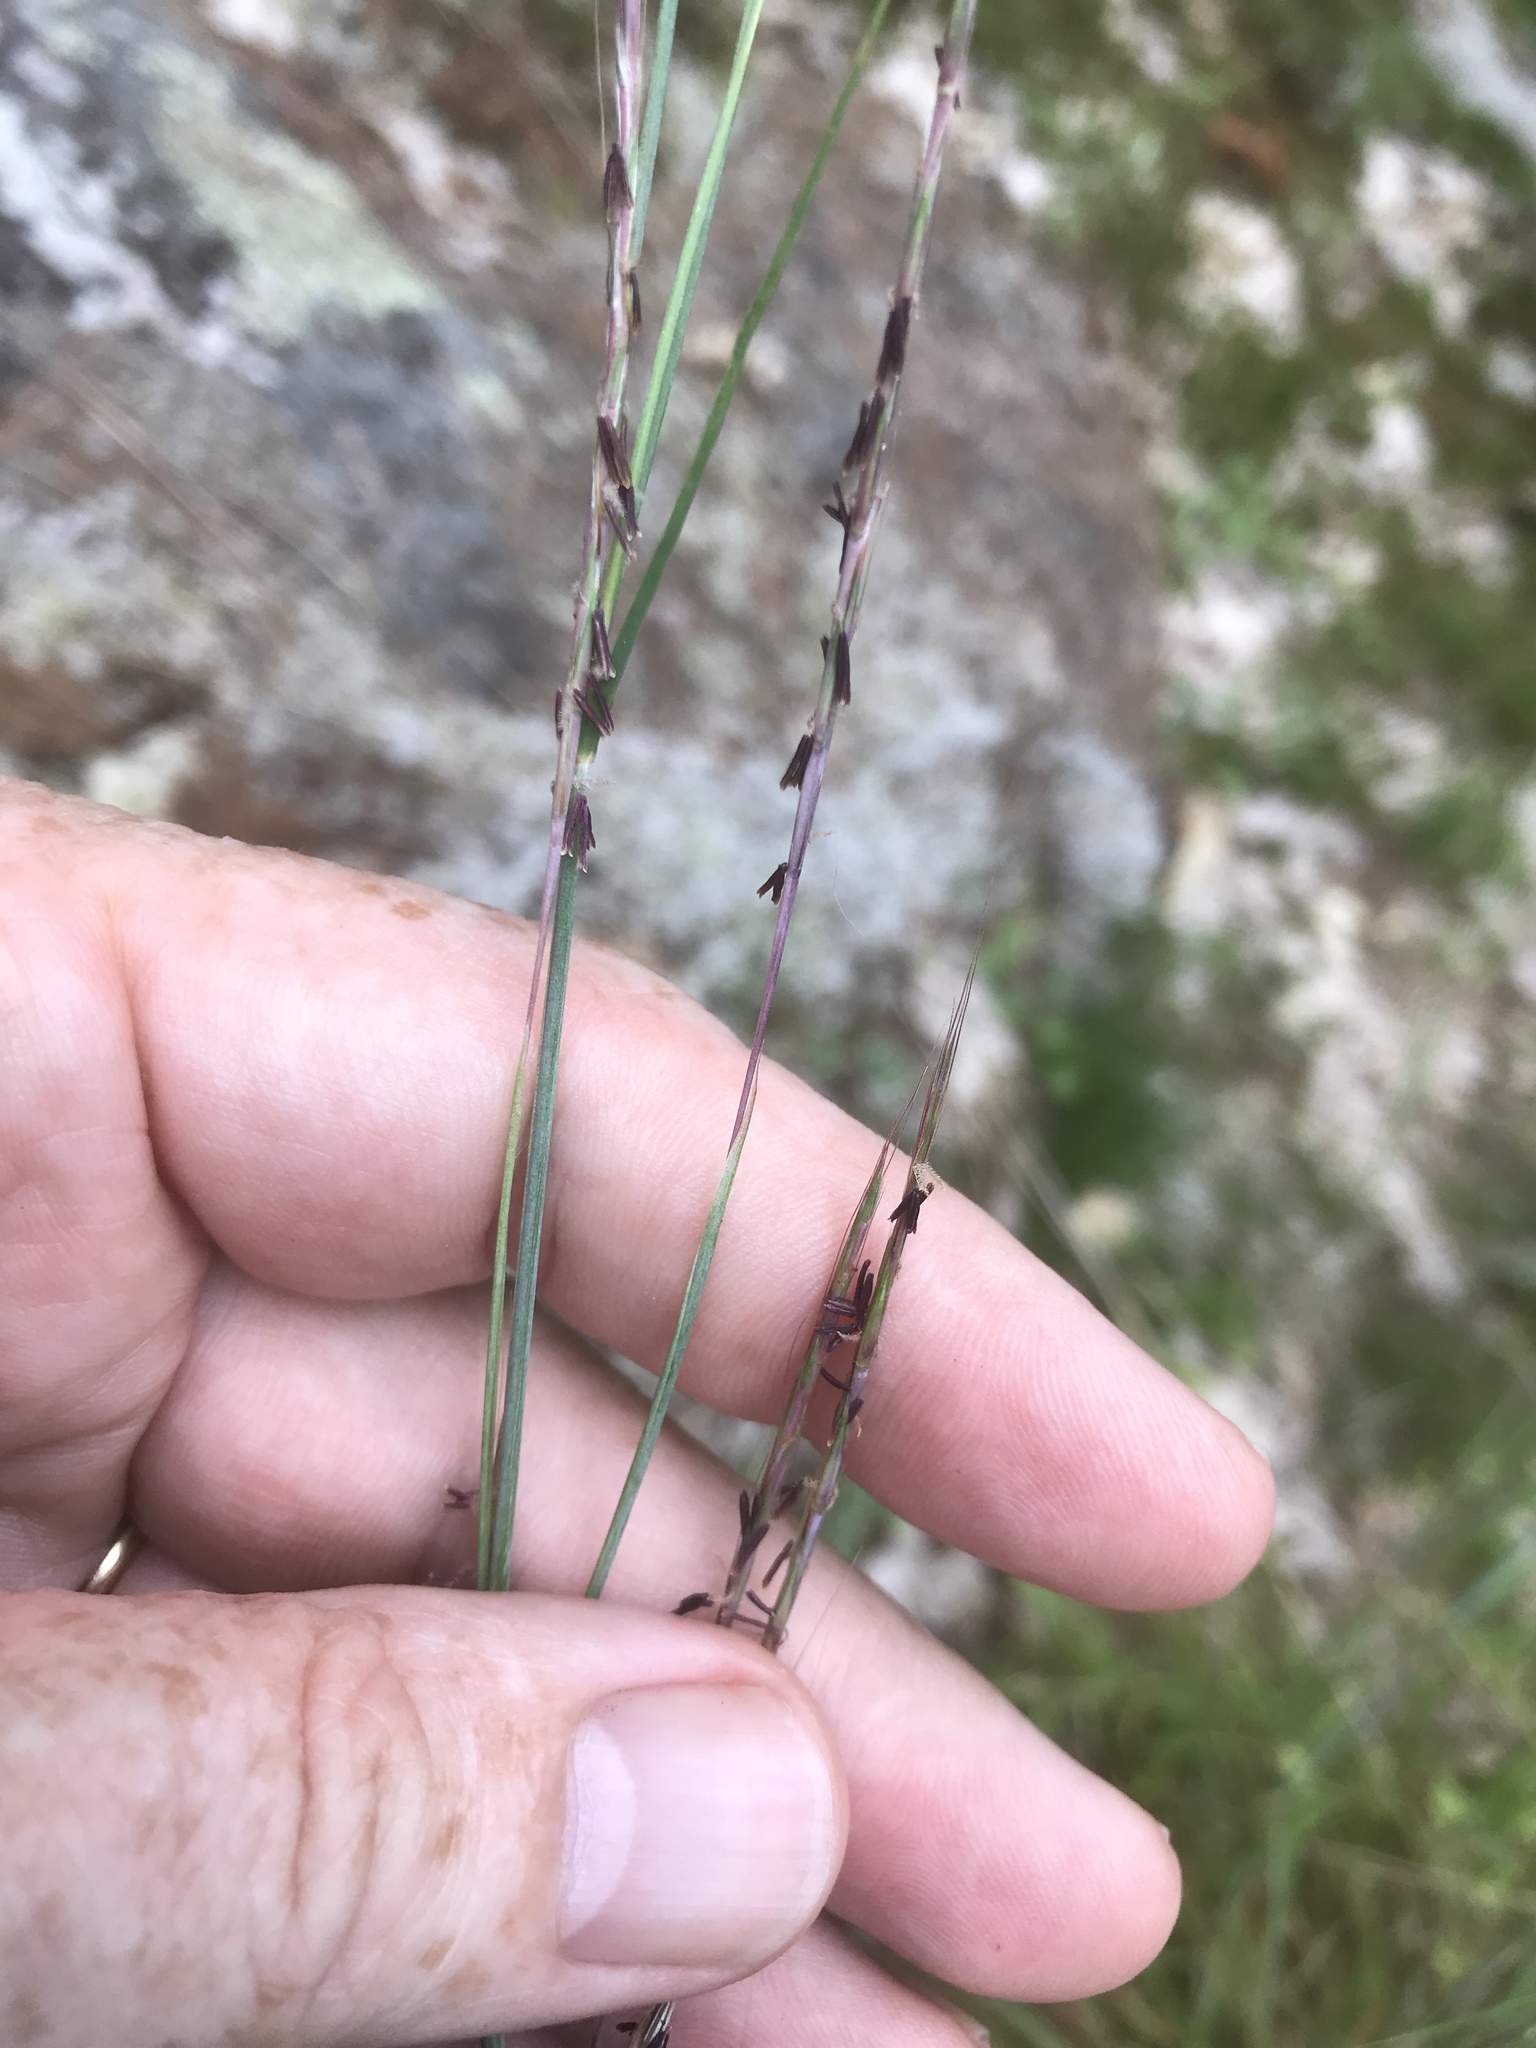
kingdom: Plantae
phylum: Tracheophyta
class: Liliopsida
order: Poales
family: Poaceae
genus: Schizachyrium
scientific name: Schizachyrium scoparium
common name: Little bluestem
